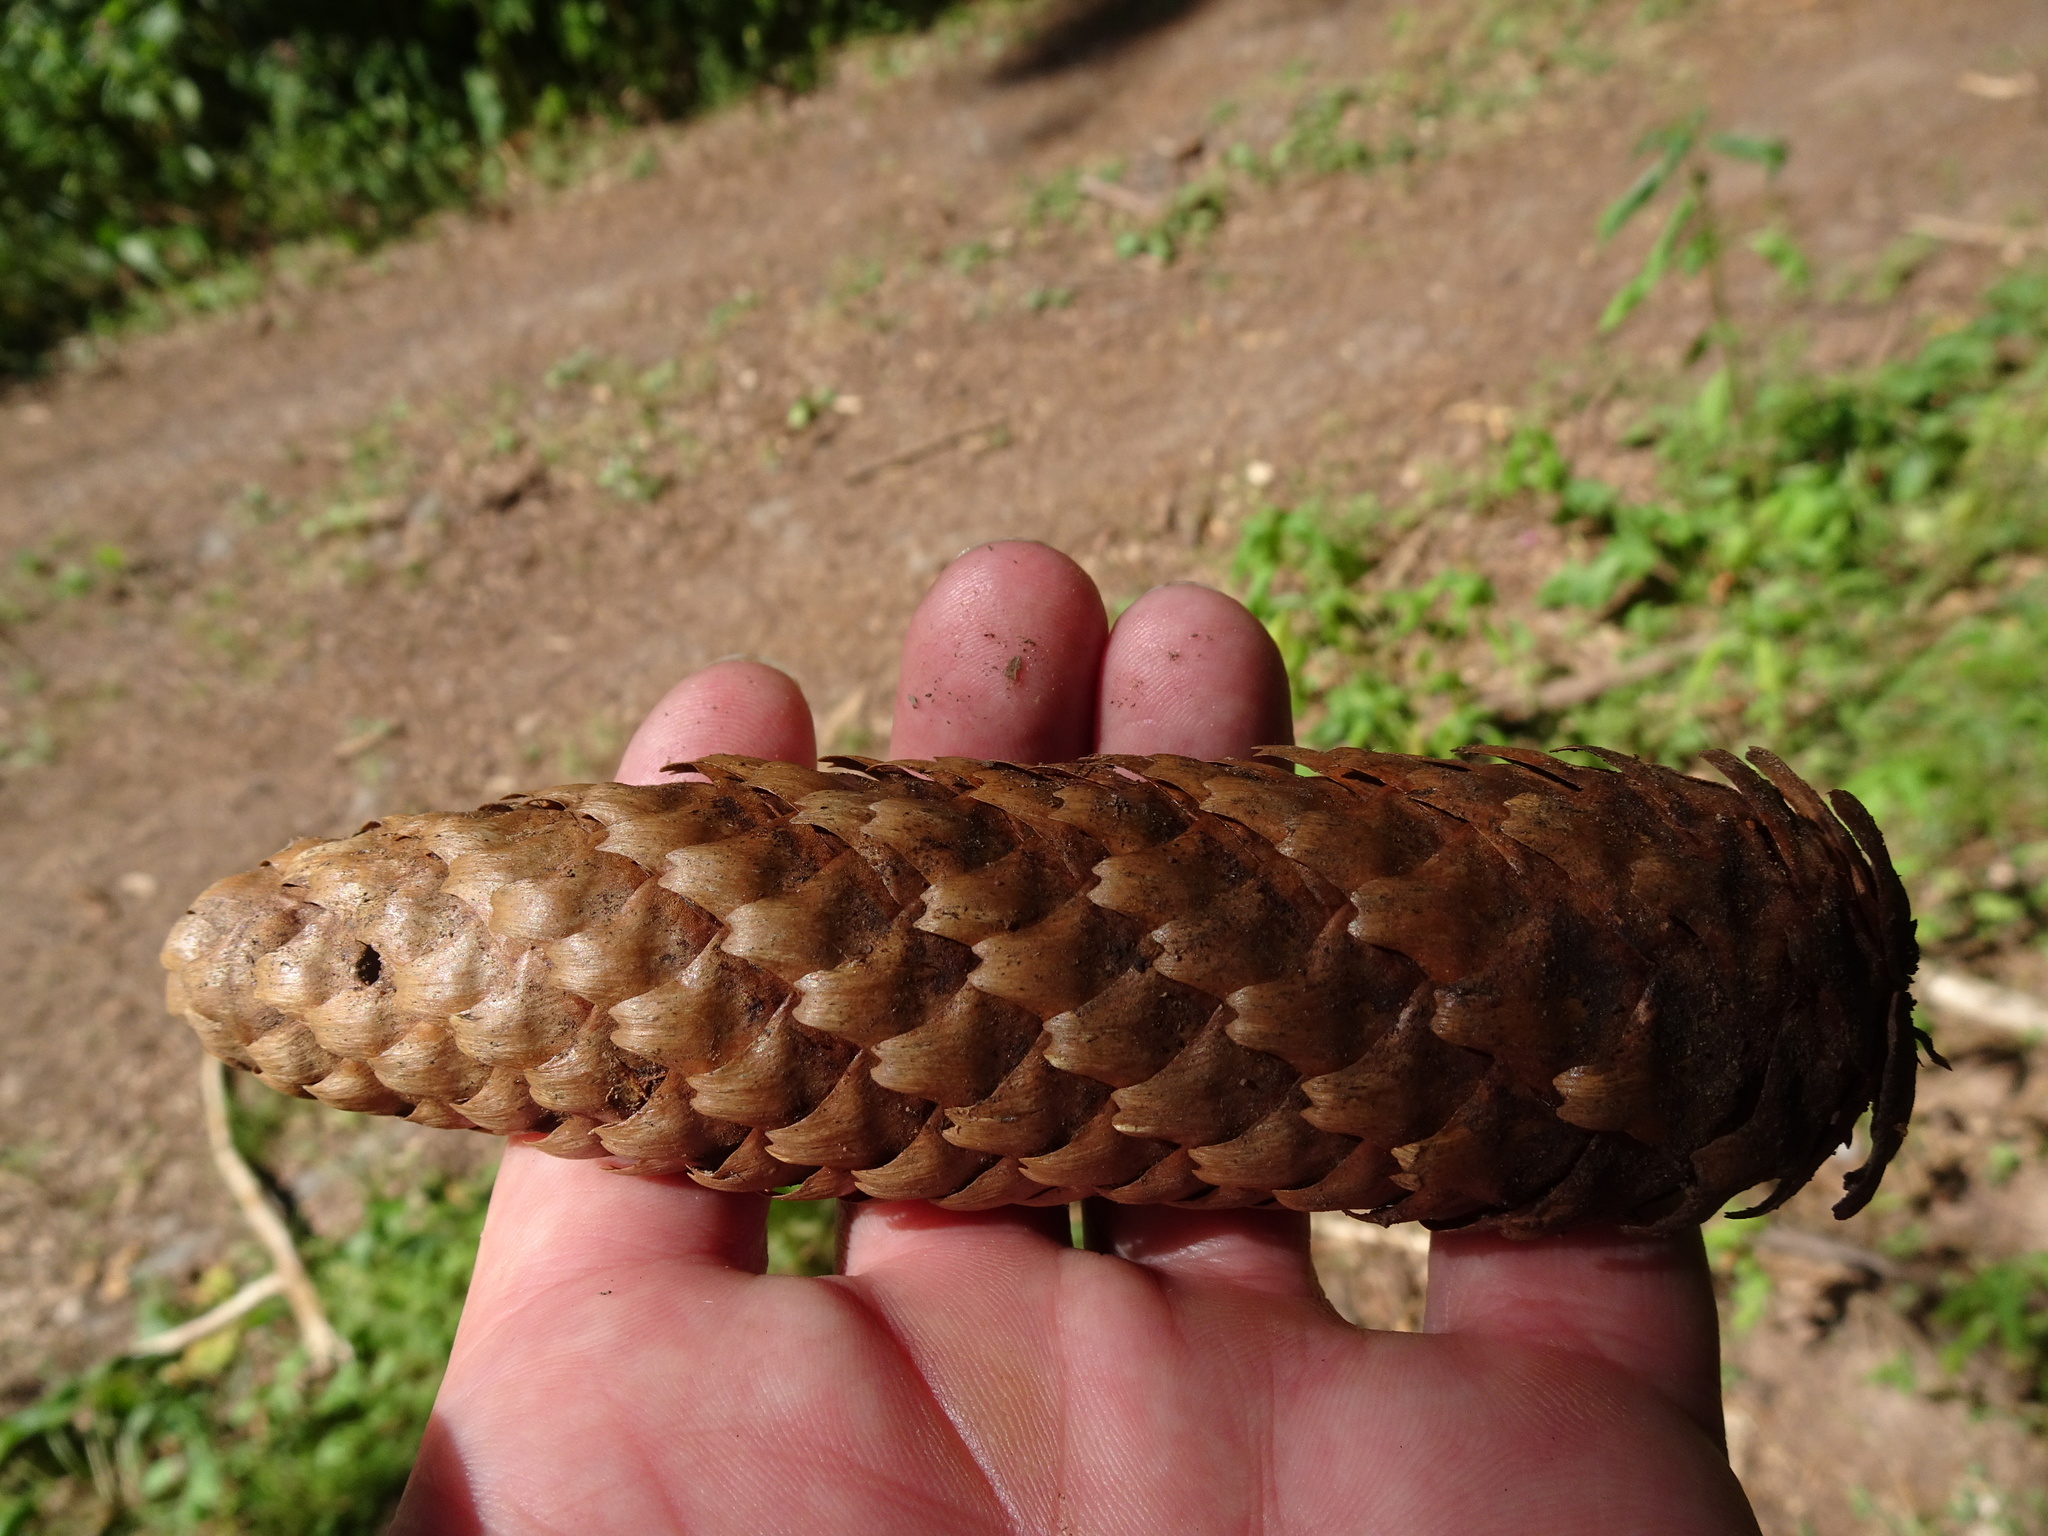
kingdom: Plantae
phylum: Tracheophyta
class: Pinopsida
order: Pinales
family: Pinaceae
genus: Picea
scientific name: Picea abies
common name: Norway spruce
